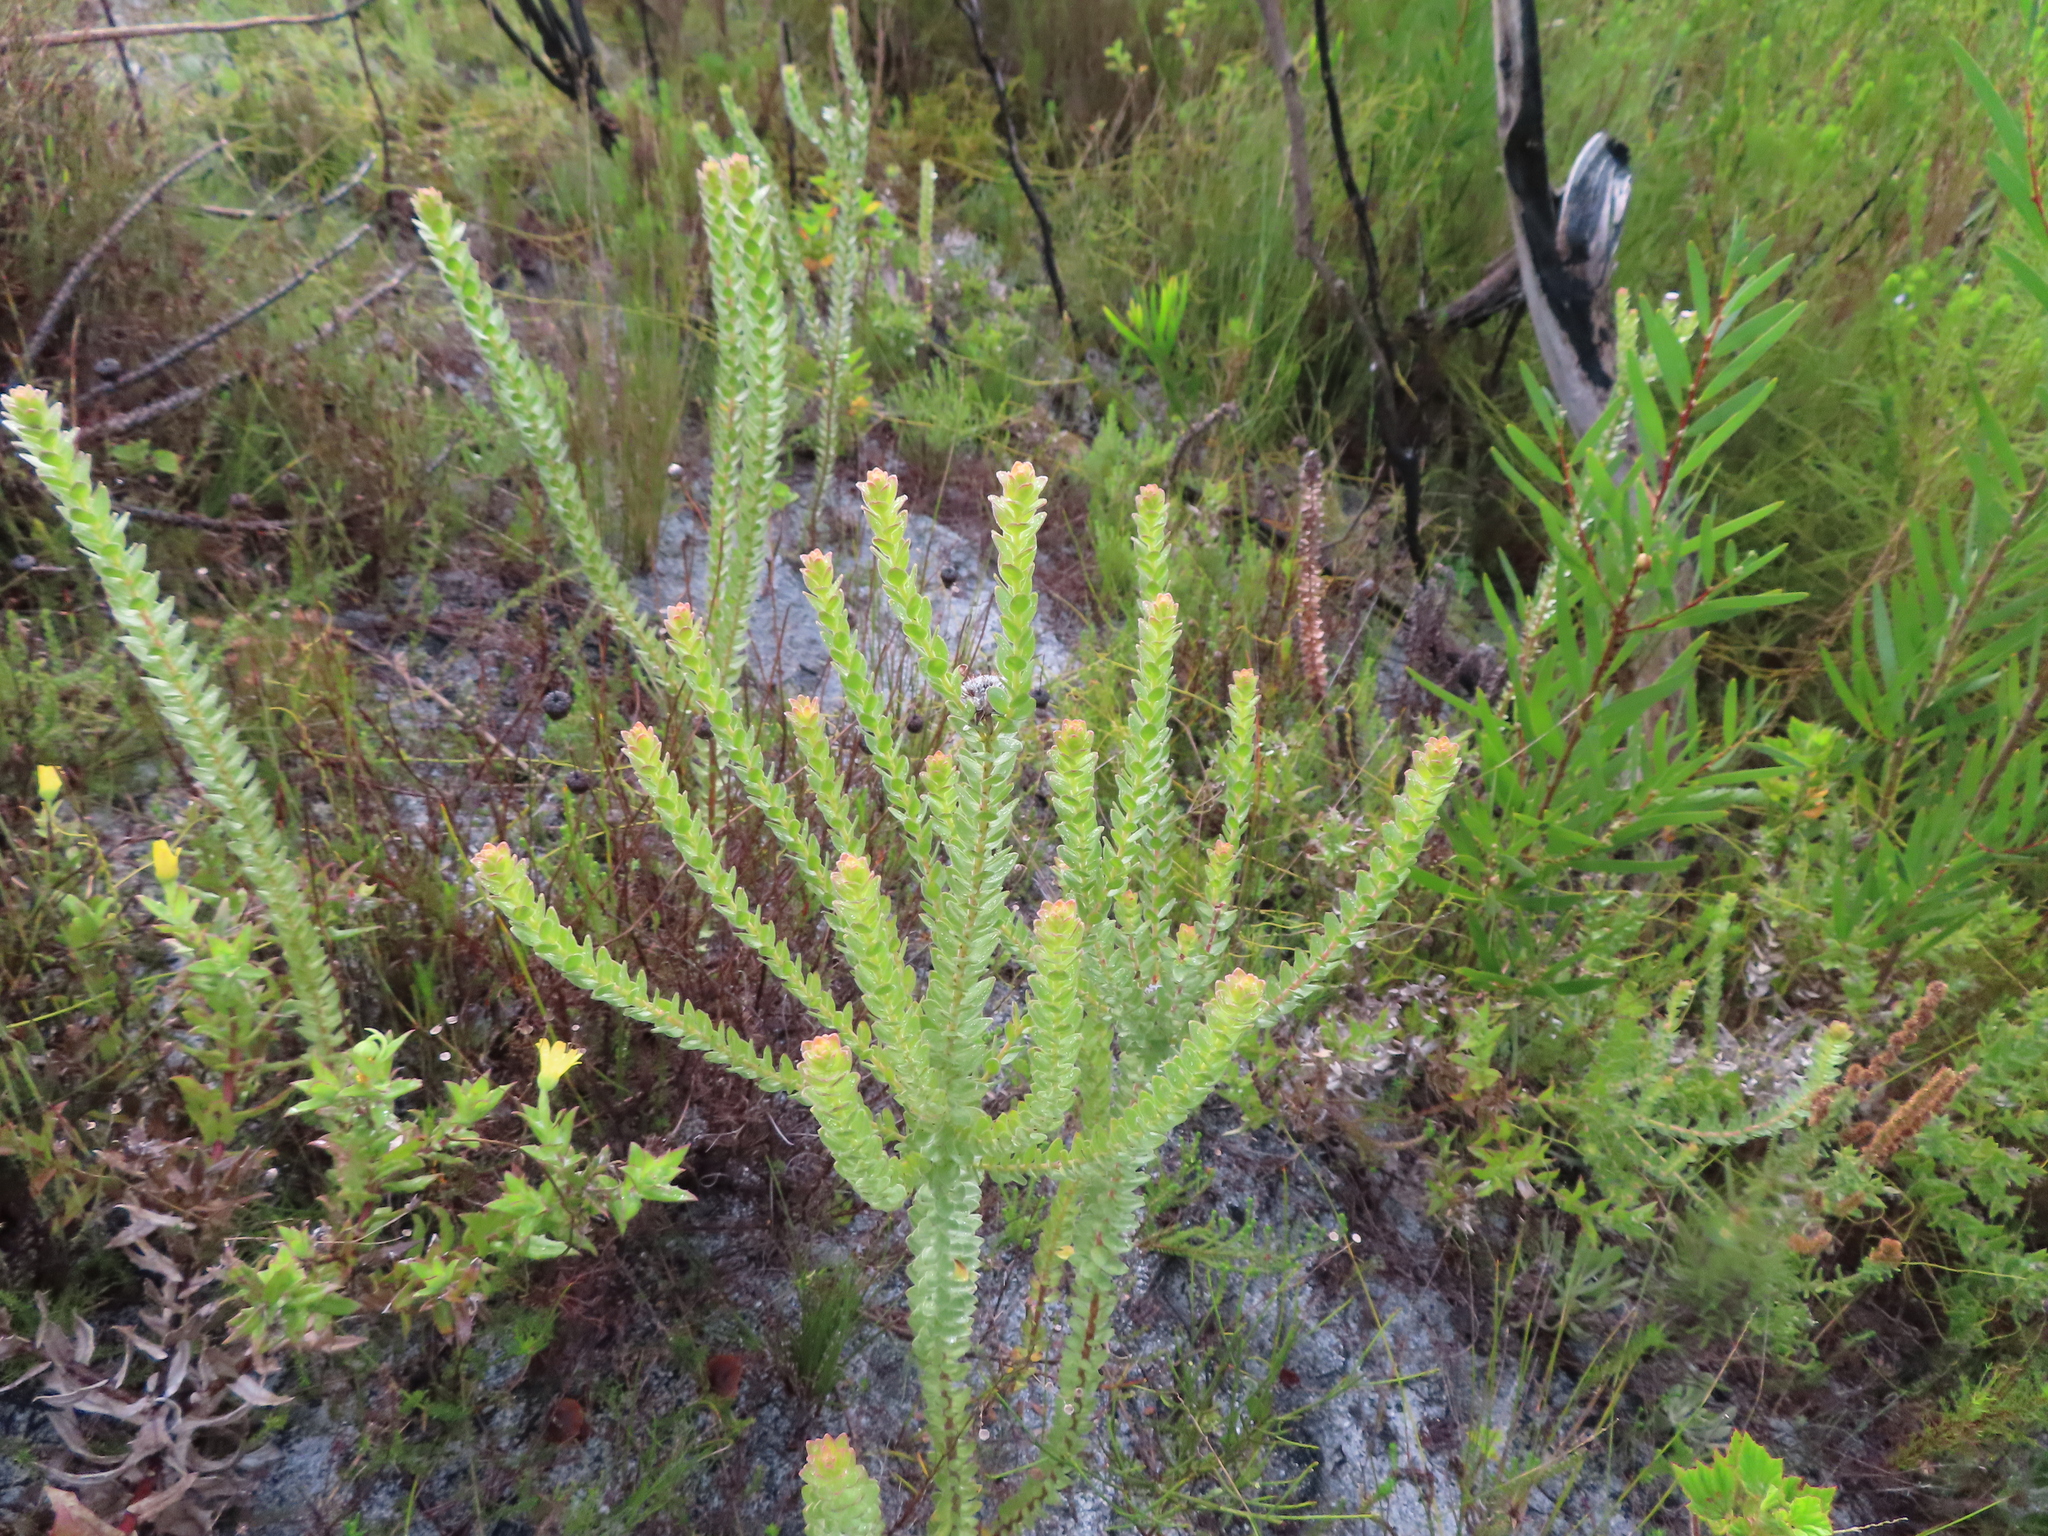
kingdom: Plantae
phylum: Tracheophyta
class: Magnoliopsida
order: Proteales
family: Proteaceae
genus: Diastella
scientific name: Diastella thymelaeoides
